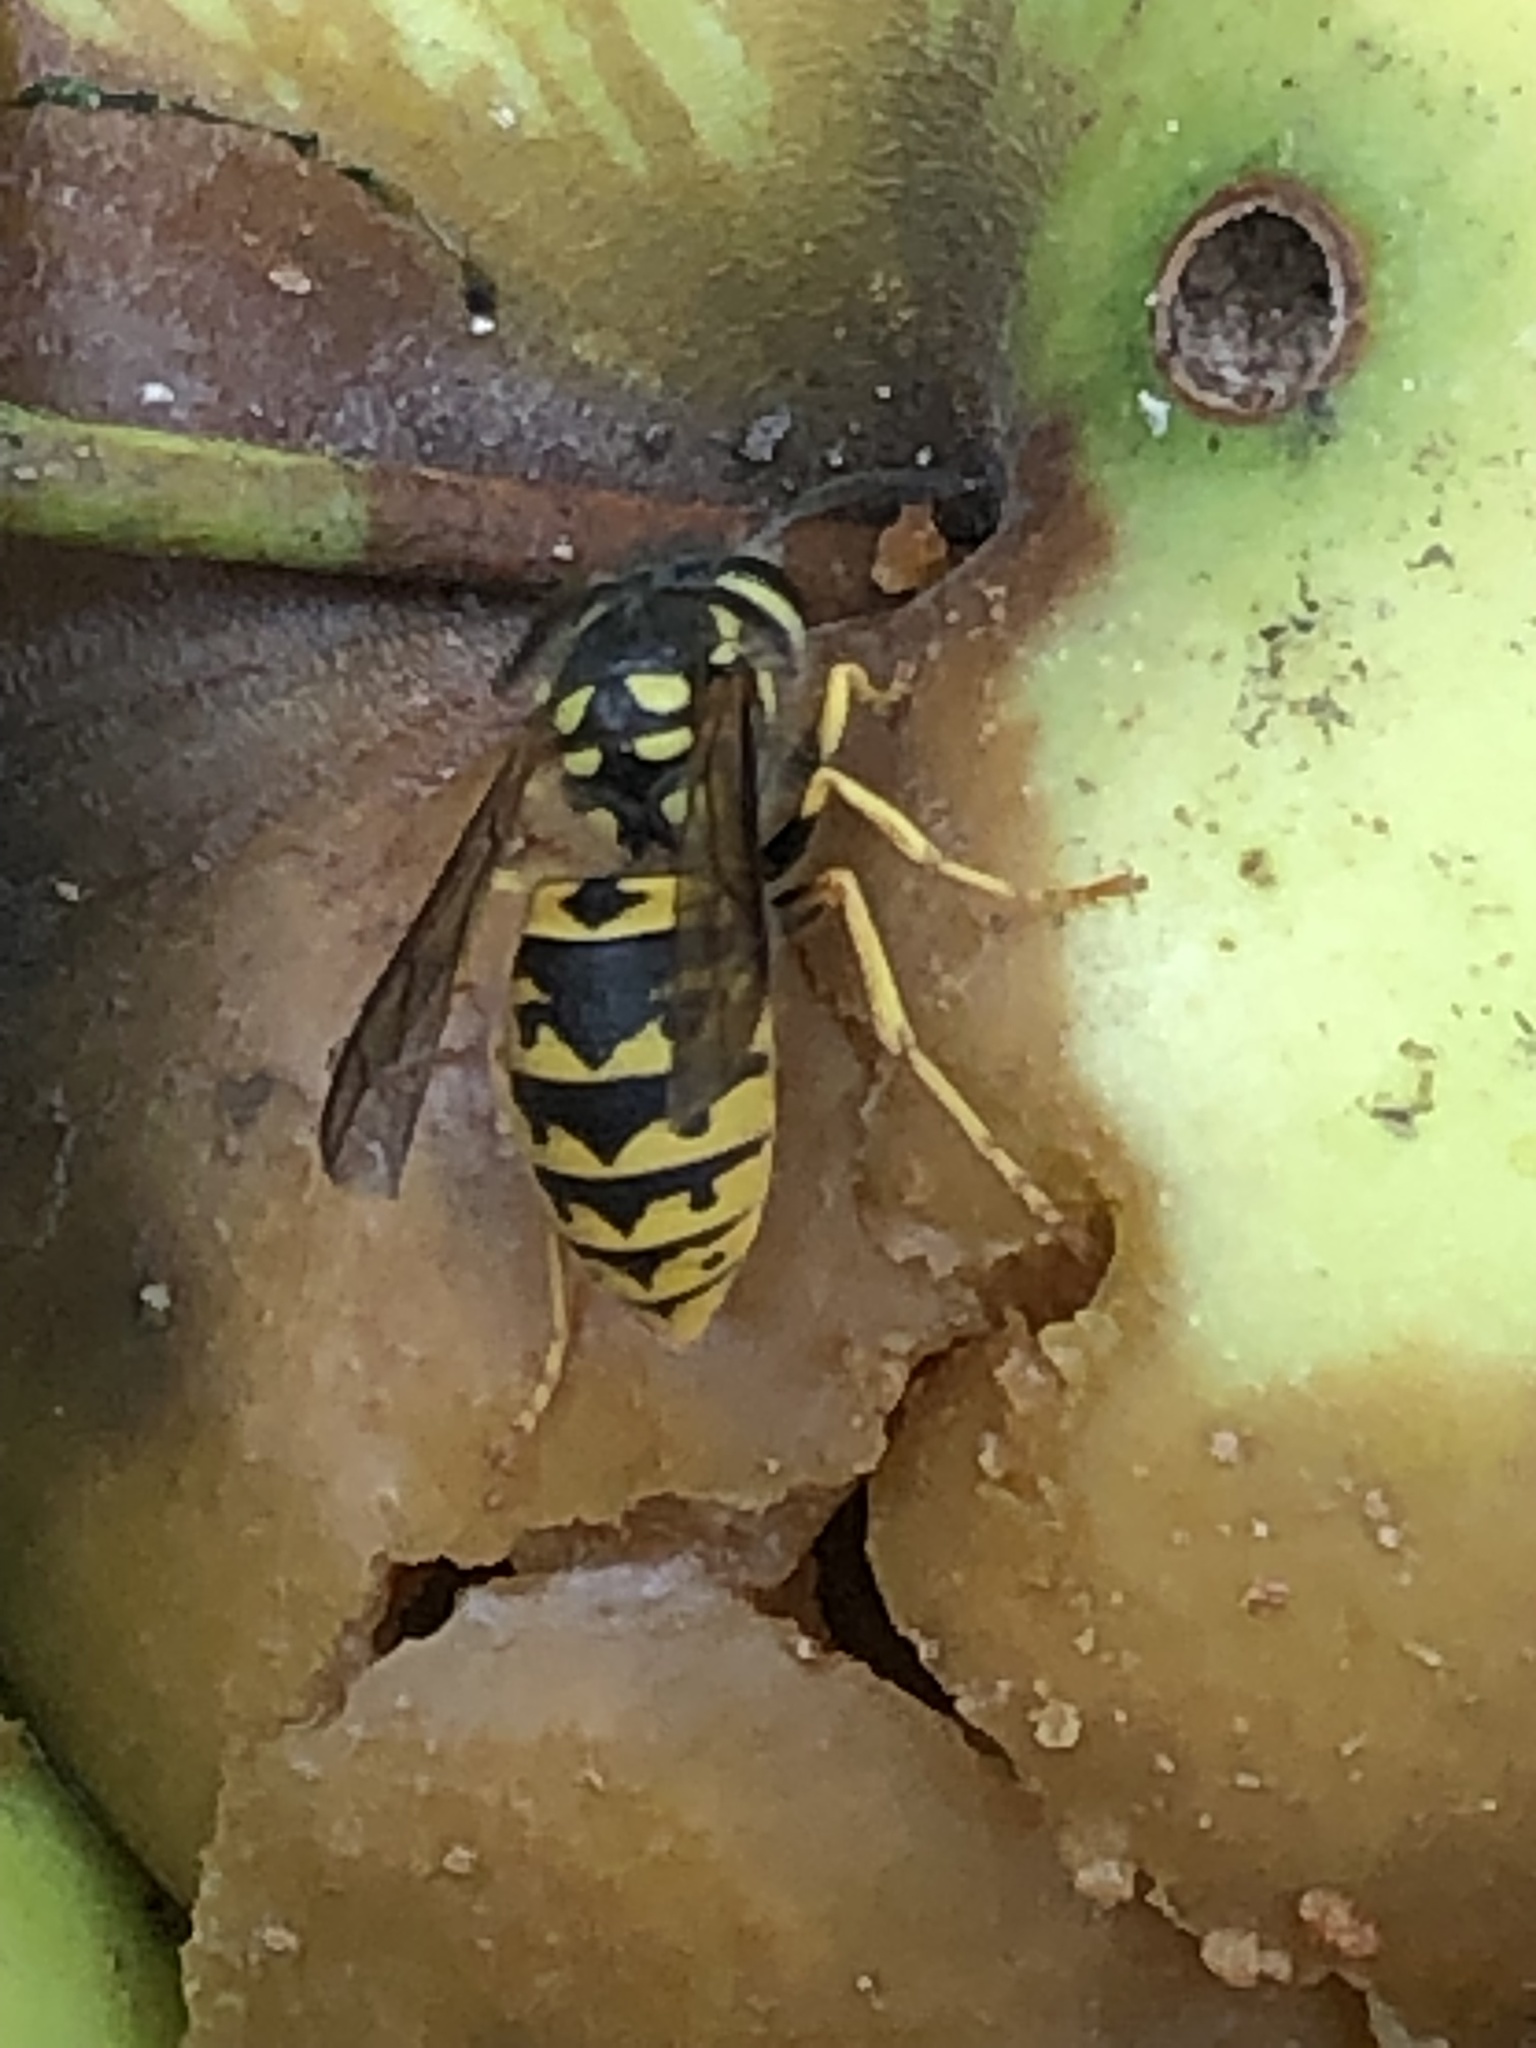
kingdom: Animalia
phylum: Arthropoda
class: Insecta
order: Hymenoptera
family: Vespidae
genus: Vespula
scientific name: Vespula germanica
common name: German wasp
